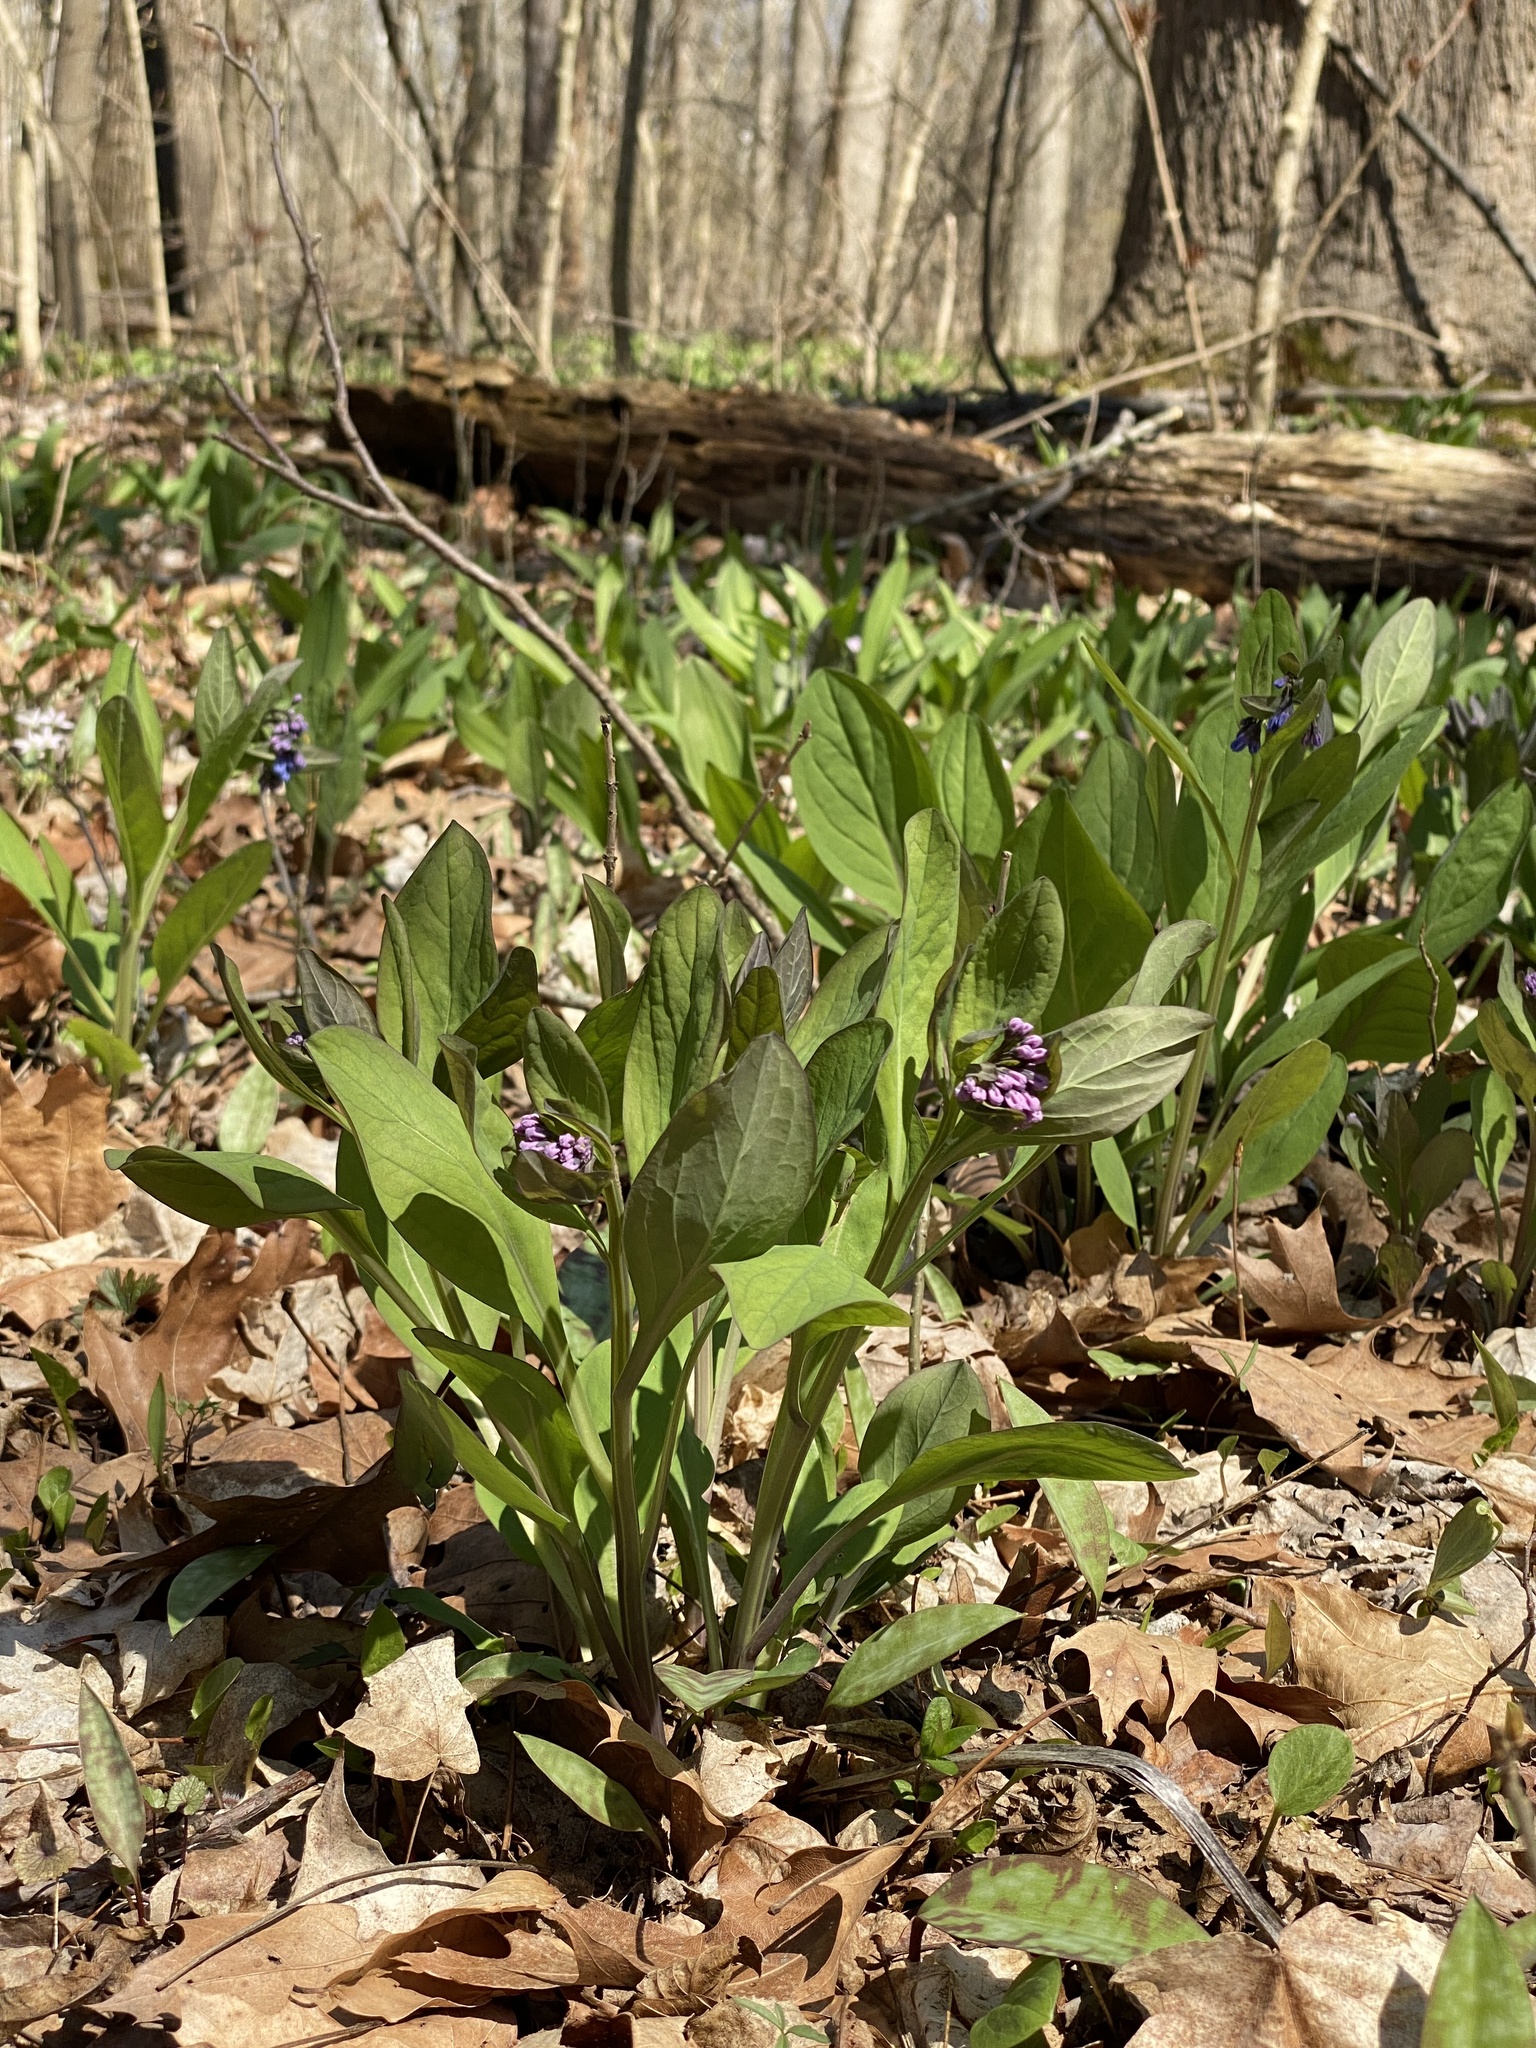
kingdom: Plantae
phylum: Tracheophyta
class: Magnoliopsida
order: Boraginales
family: Boraginaceae
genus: Mertensia
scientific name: Mertensia virginica
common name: Virginia bluebells
